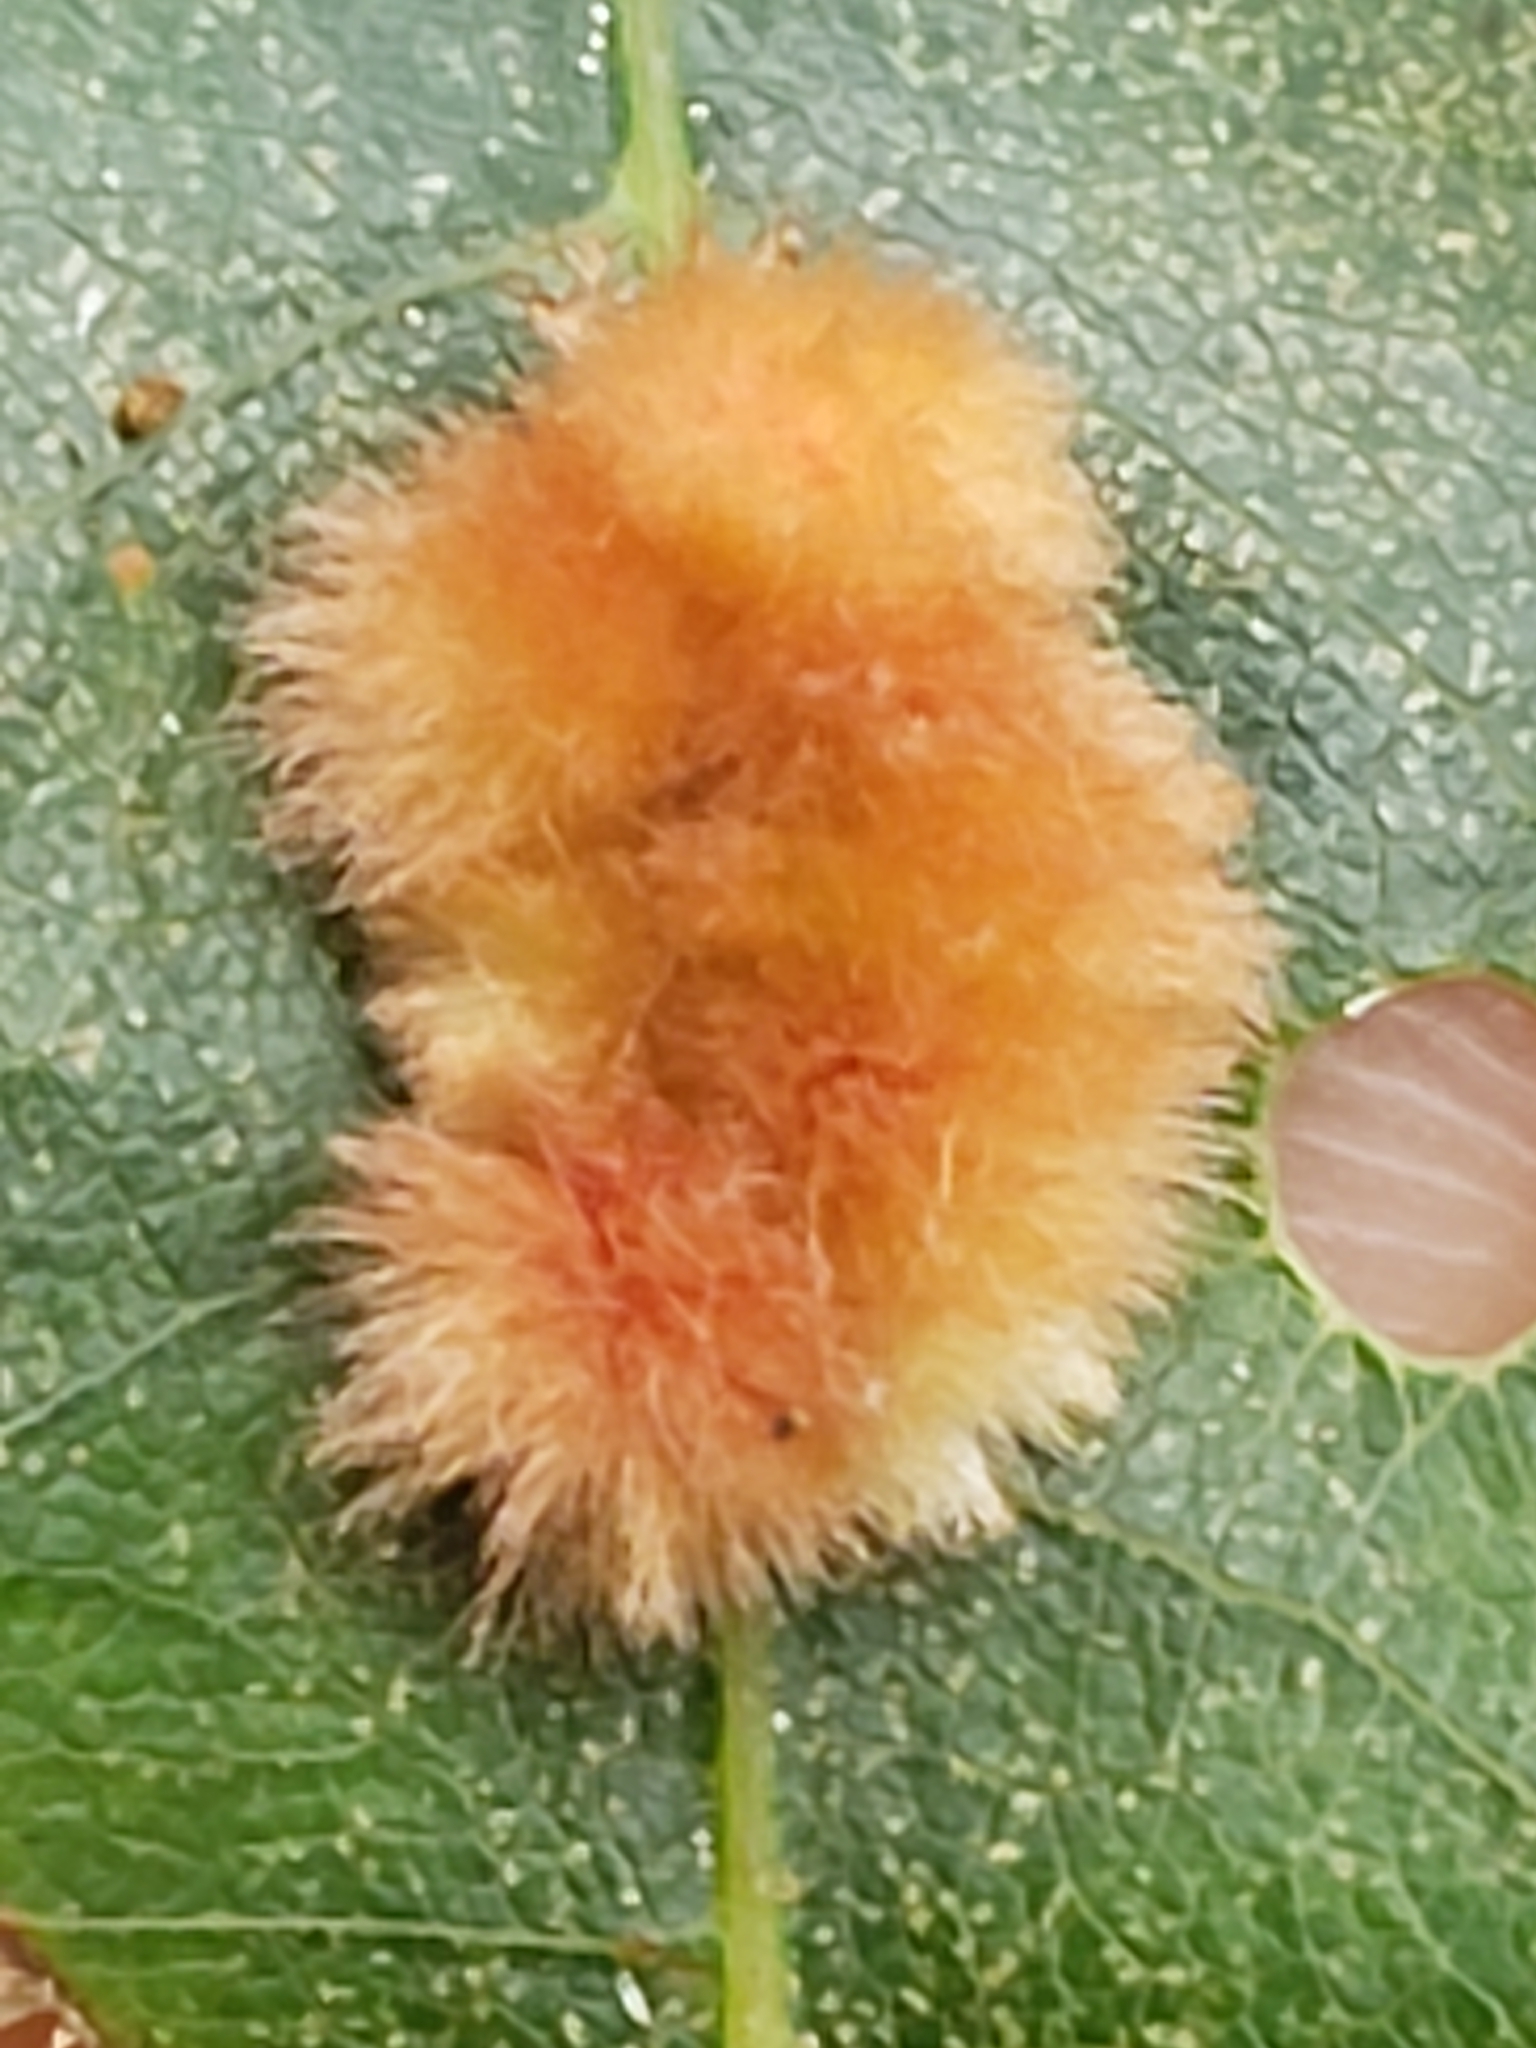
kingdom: Animalia
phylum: Arthropoda
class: Insecta
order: Hymenoptera
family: Cynipidae
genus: Callirhytis
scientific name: Callirhytis
